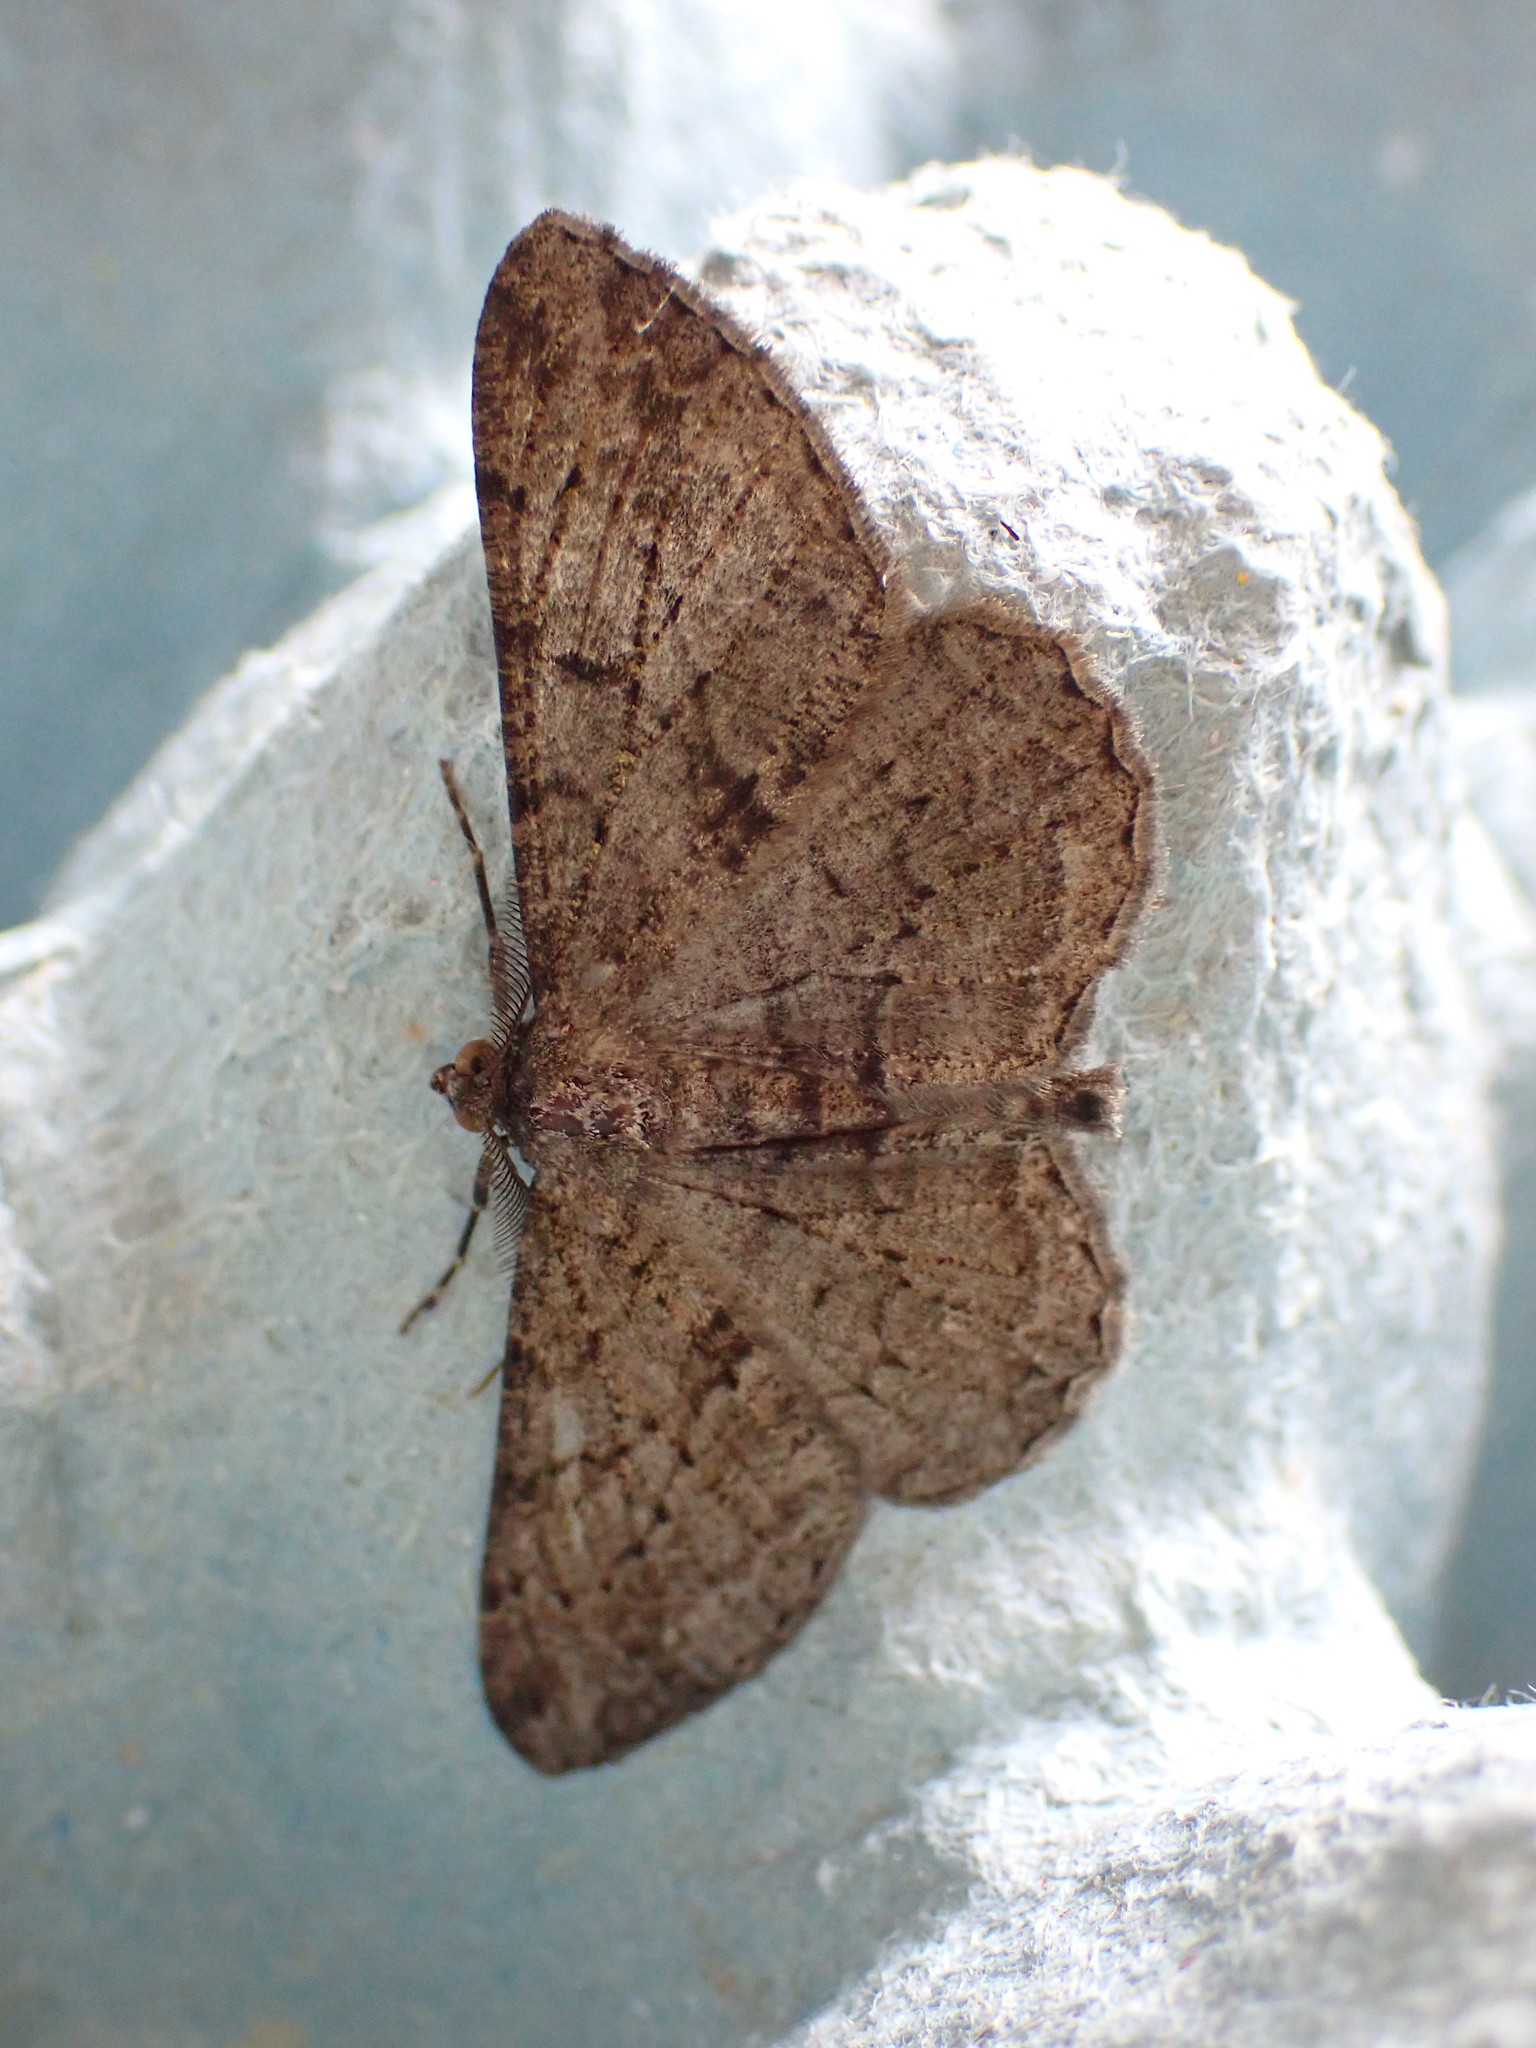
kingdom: Animalia
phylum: Arthropoda
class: Insecta
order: Lepidoptera
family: Geometridae
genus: Peribatodes
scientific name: Peribatodes rhomboidaria
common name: Willow beauty
